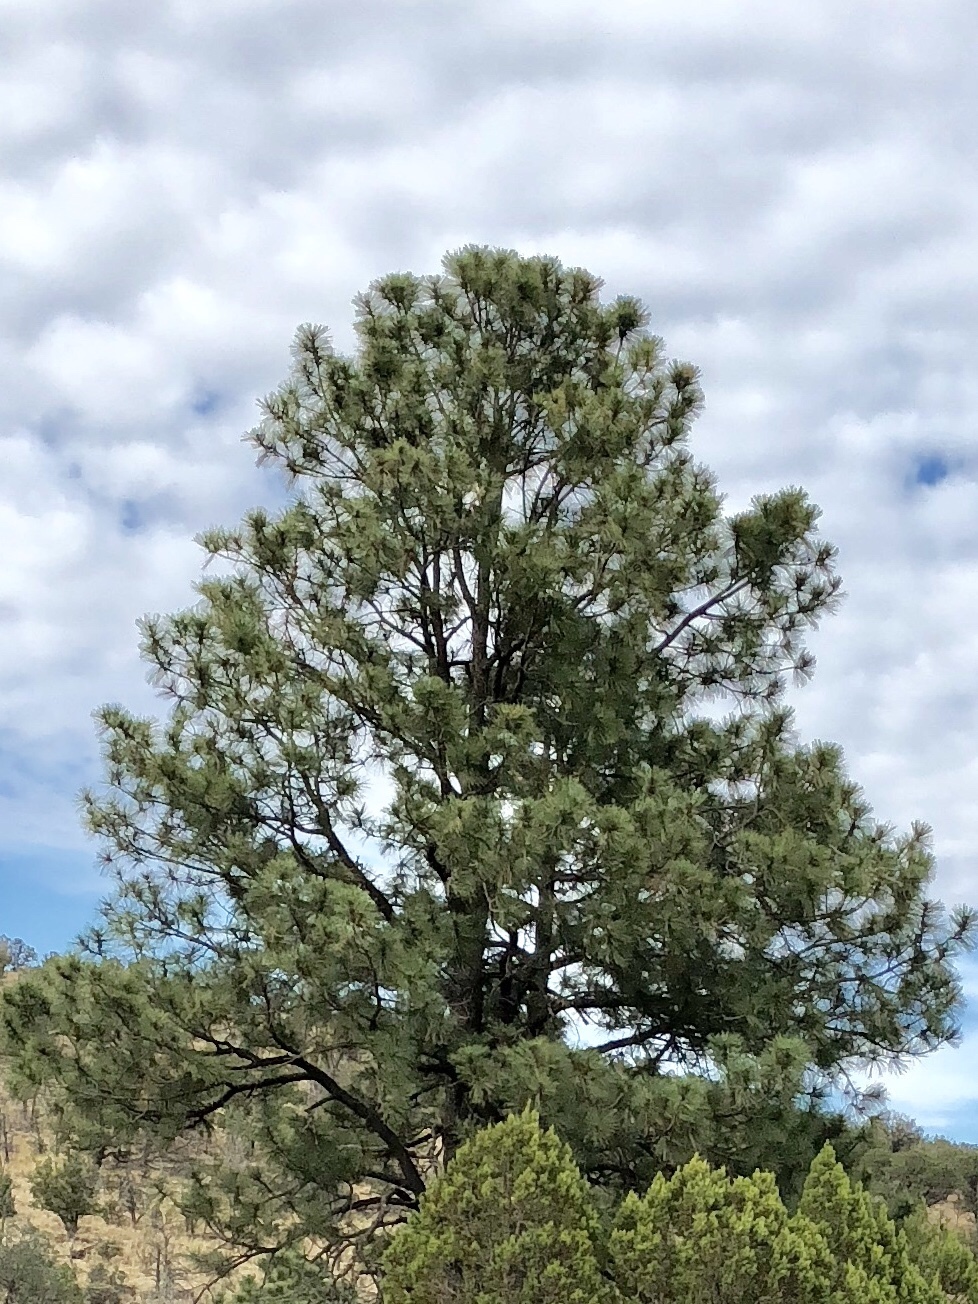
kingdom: Plantae
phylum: Tracheophyta
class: Pinopsida
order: Pinales
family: Pinaceae
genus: Pinus
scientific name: Pinus ponderosa
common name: Western yellow-pine
